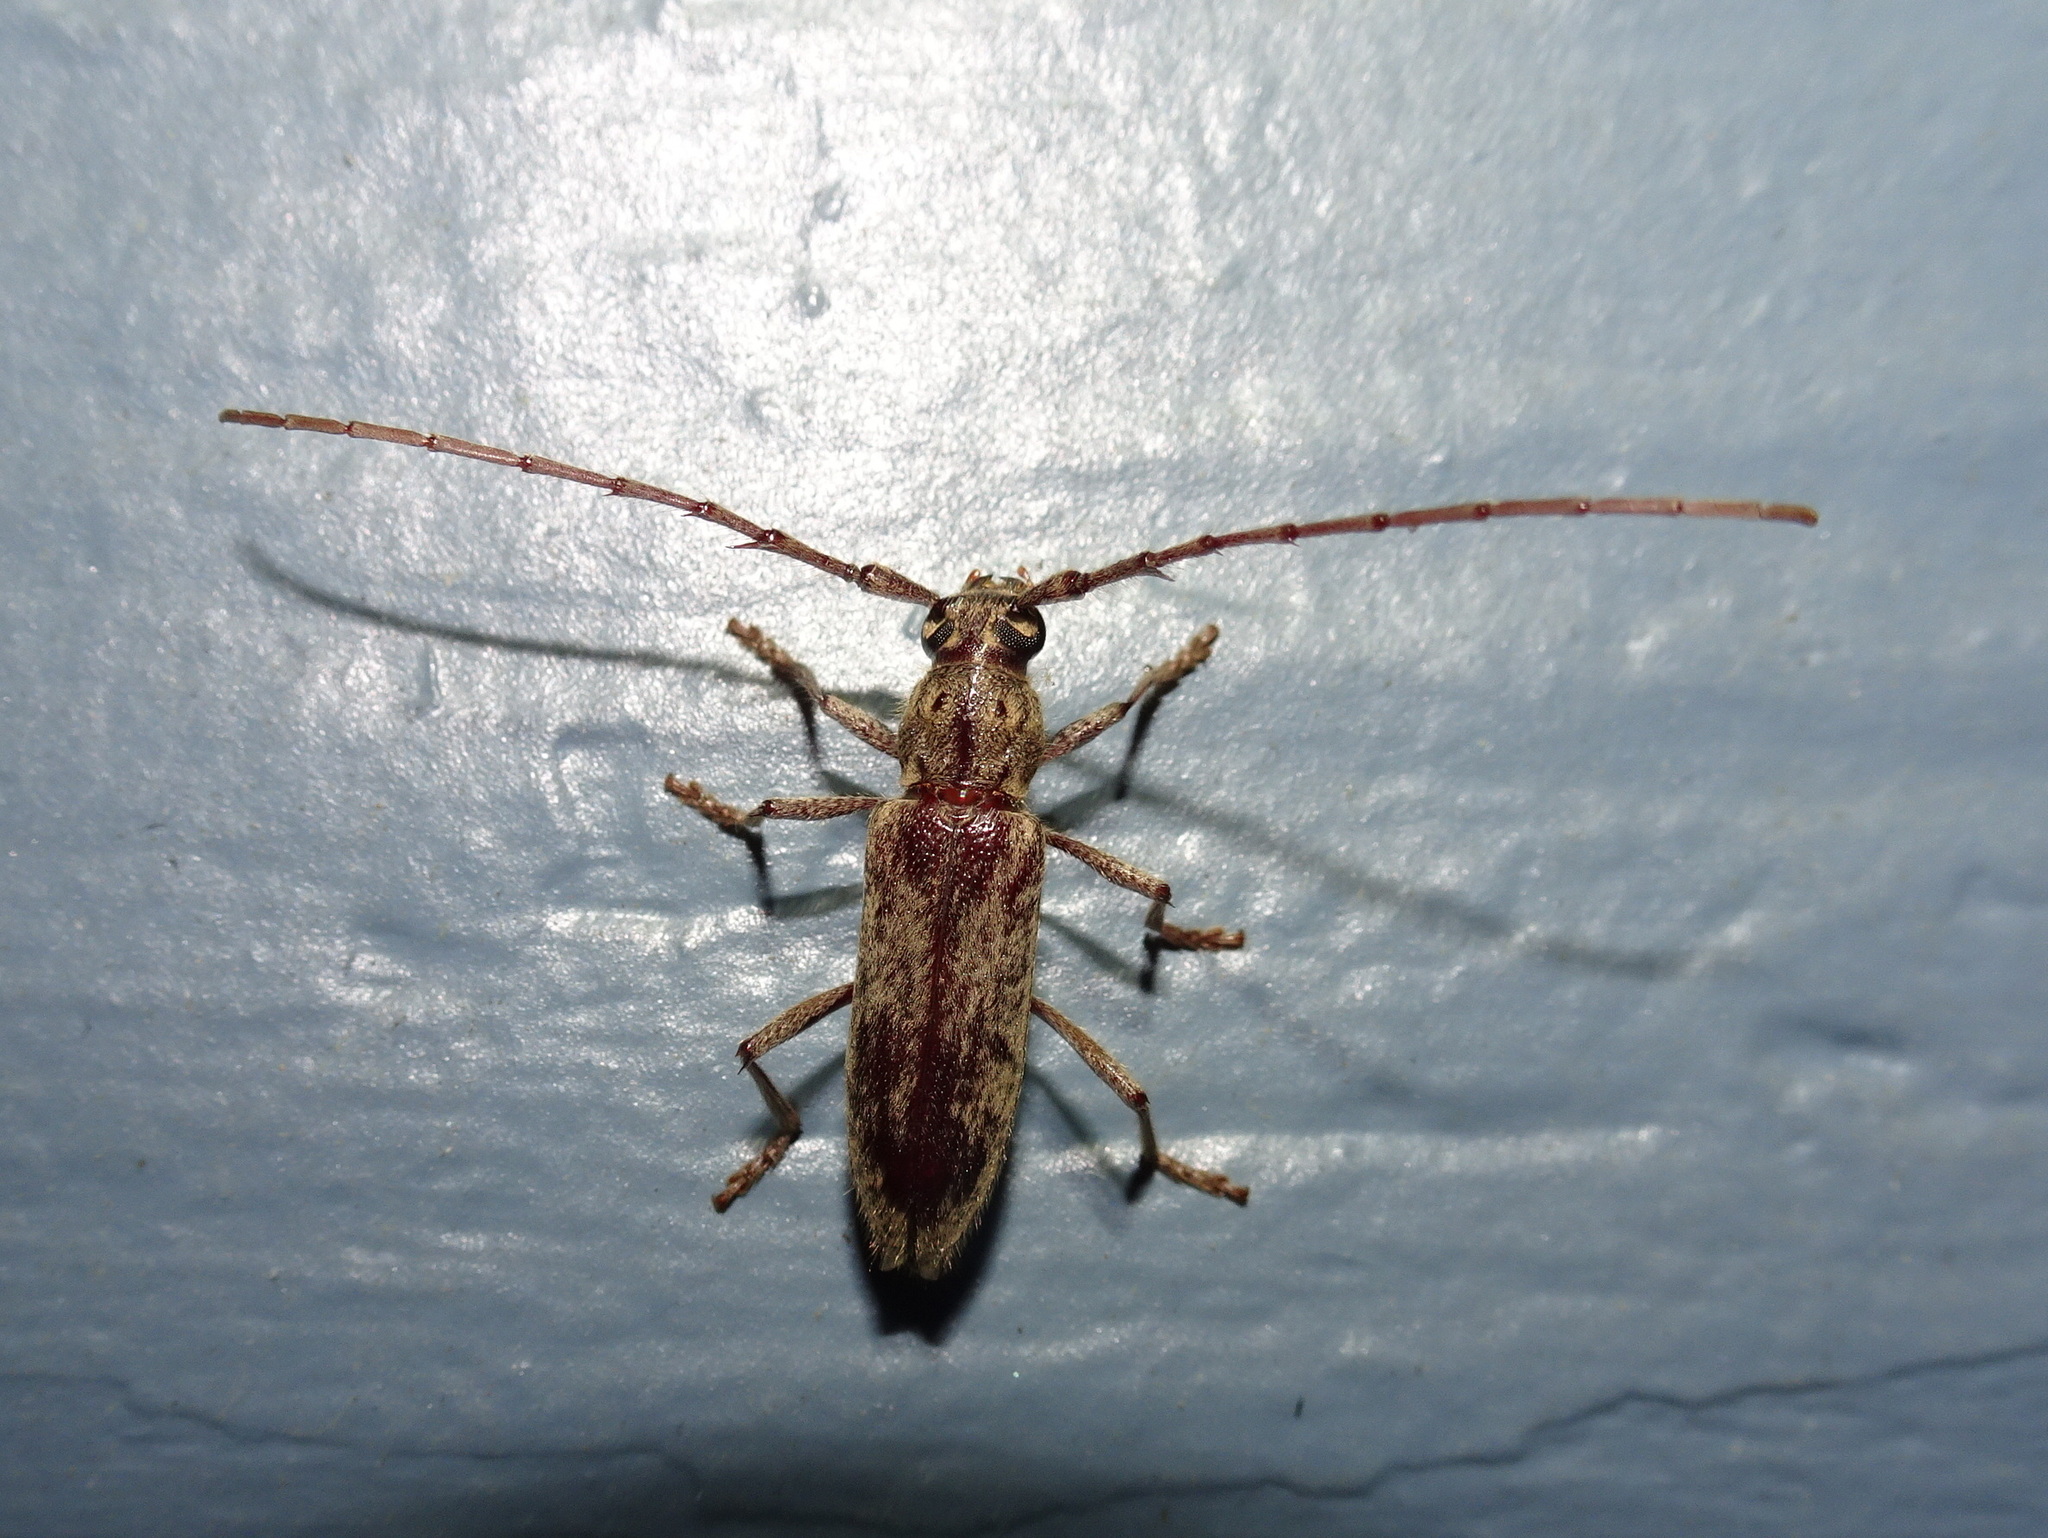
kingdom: Animalia
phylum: Arthropoda
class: Insecta
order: Coleoptera
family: Cerambycidae
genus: Elaphidion
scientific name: Elaphidion mucronatum
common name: Spined oak borer
